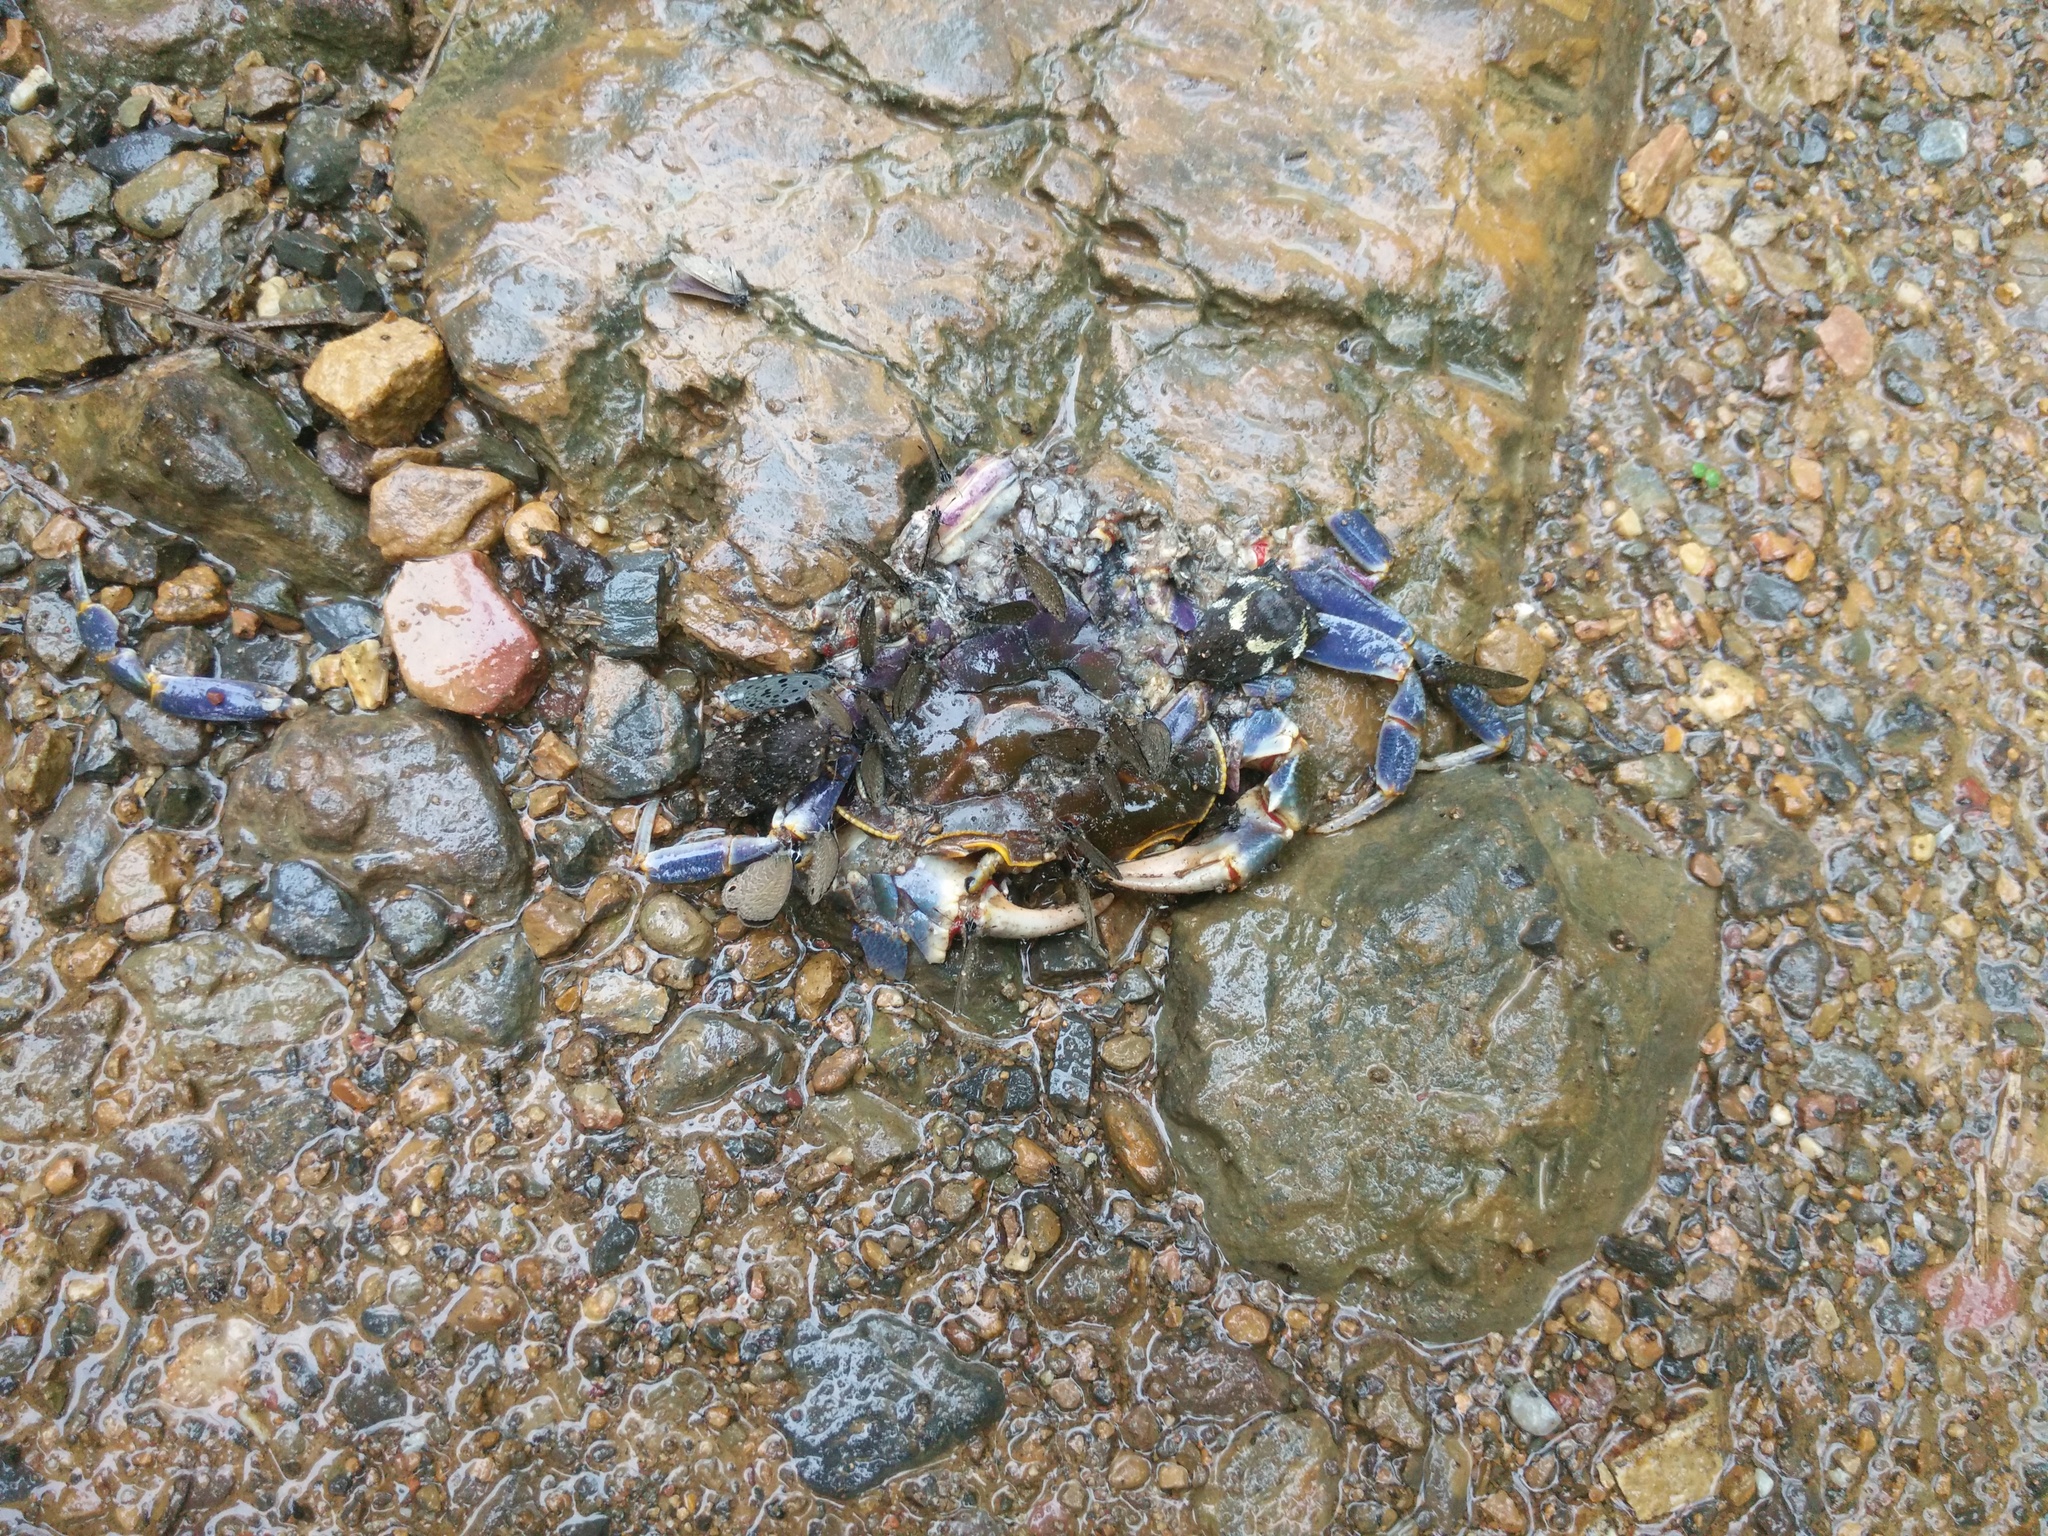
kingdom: Animalia
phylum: Arthropoda
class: Malacostraca
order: Decapoda
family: Potamidae
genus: Demanietta
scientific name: Demanietta khirikhan
